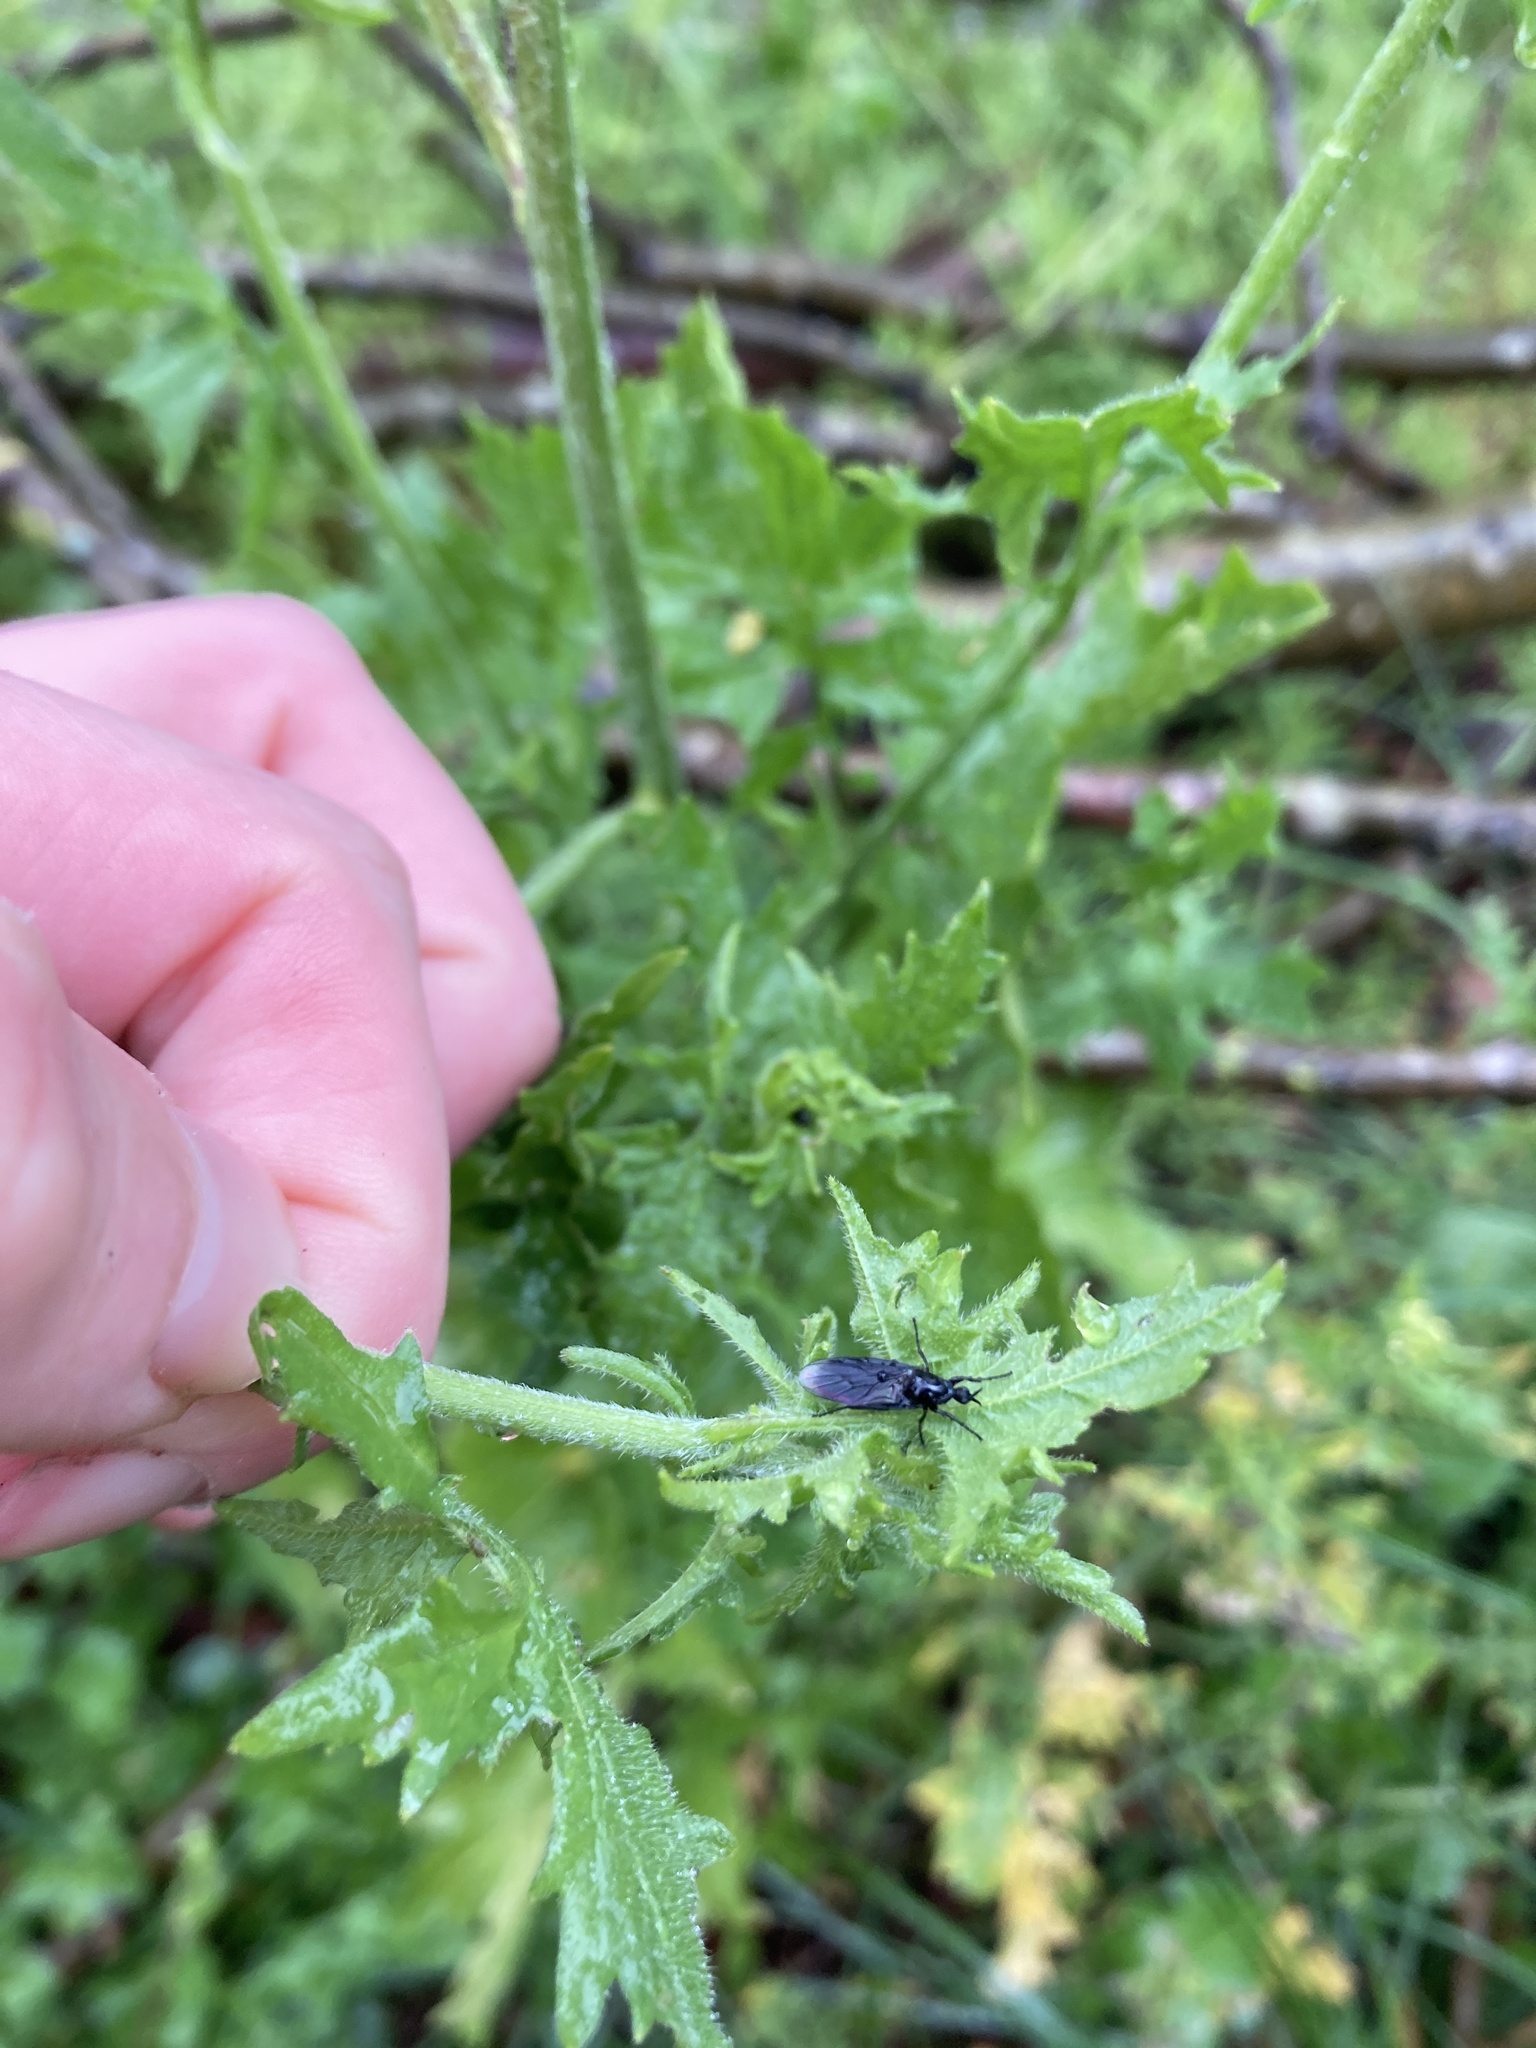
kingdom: Animalia
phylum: Arthropoda
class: Insecta
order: Diptera
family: Bibionidae
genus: Dilophus
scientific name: Dilophus febrilis
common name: Fever fly
